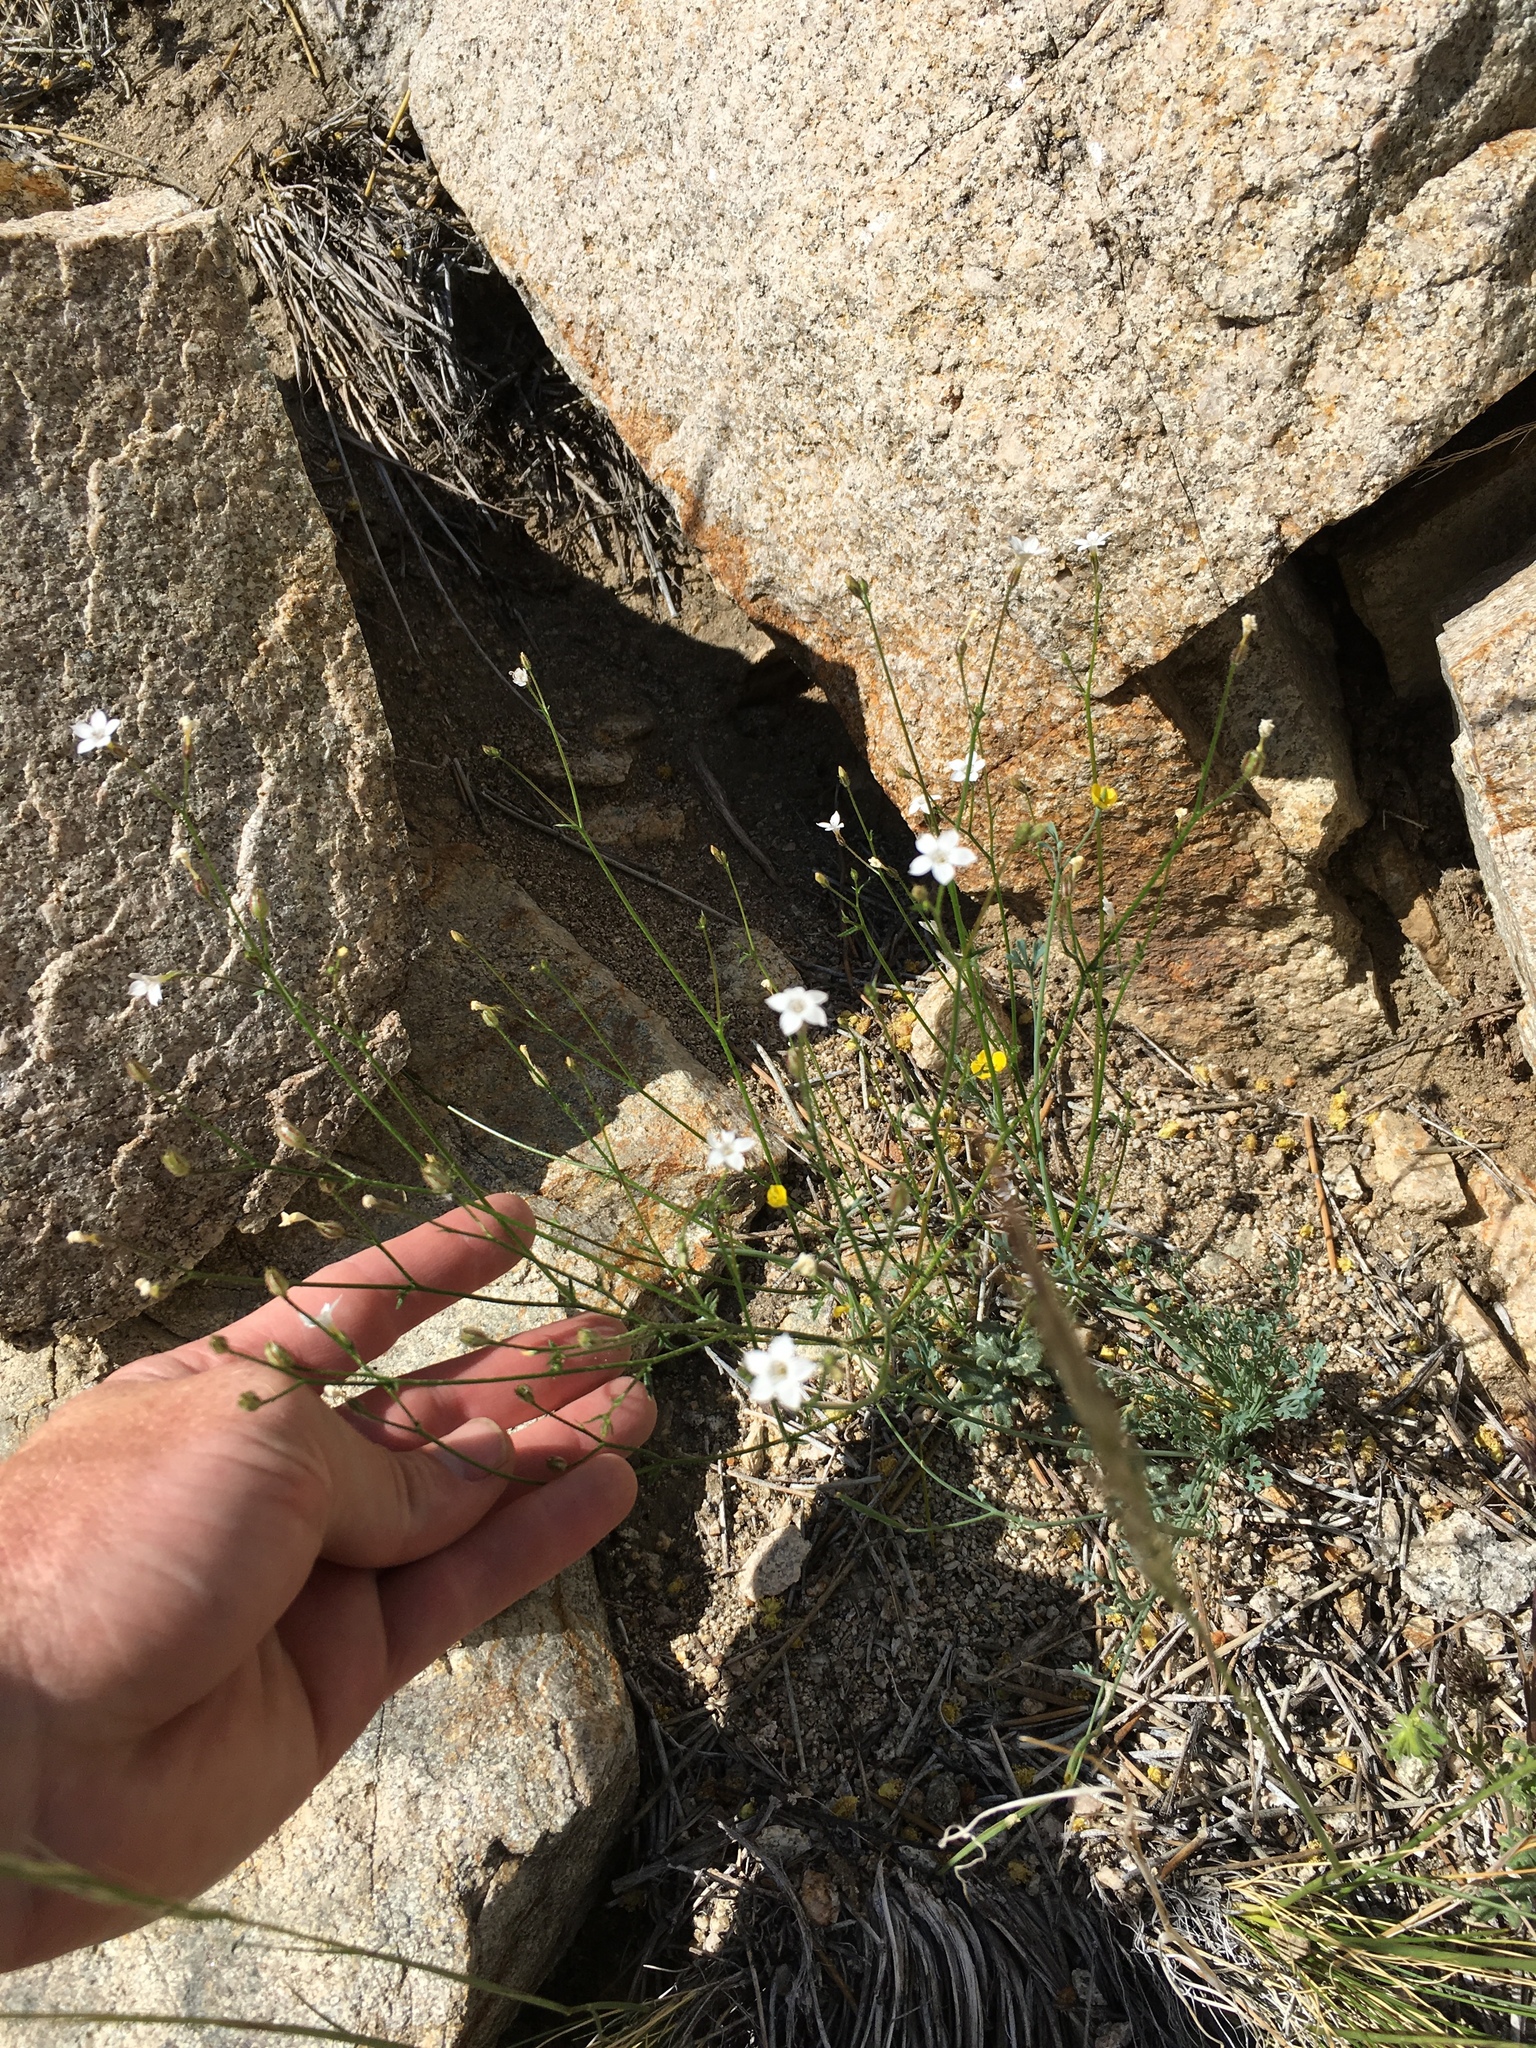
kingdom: Plantae
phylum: Tracheophyta
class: Magnoliopsida
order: Ericales
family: Polemoniaceae
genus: Gilia
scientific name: Gilia stellata
